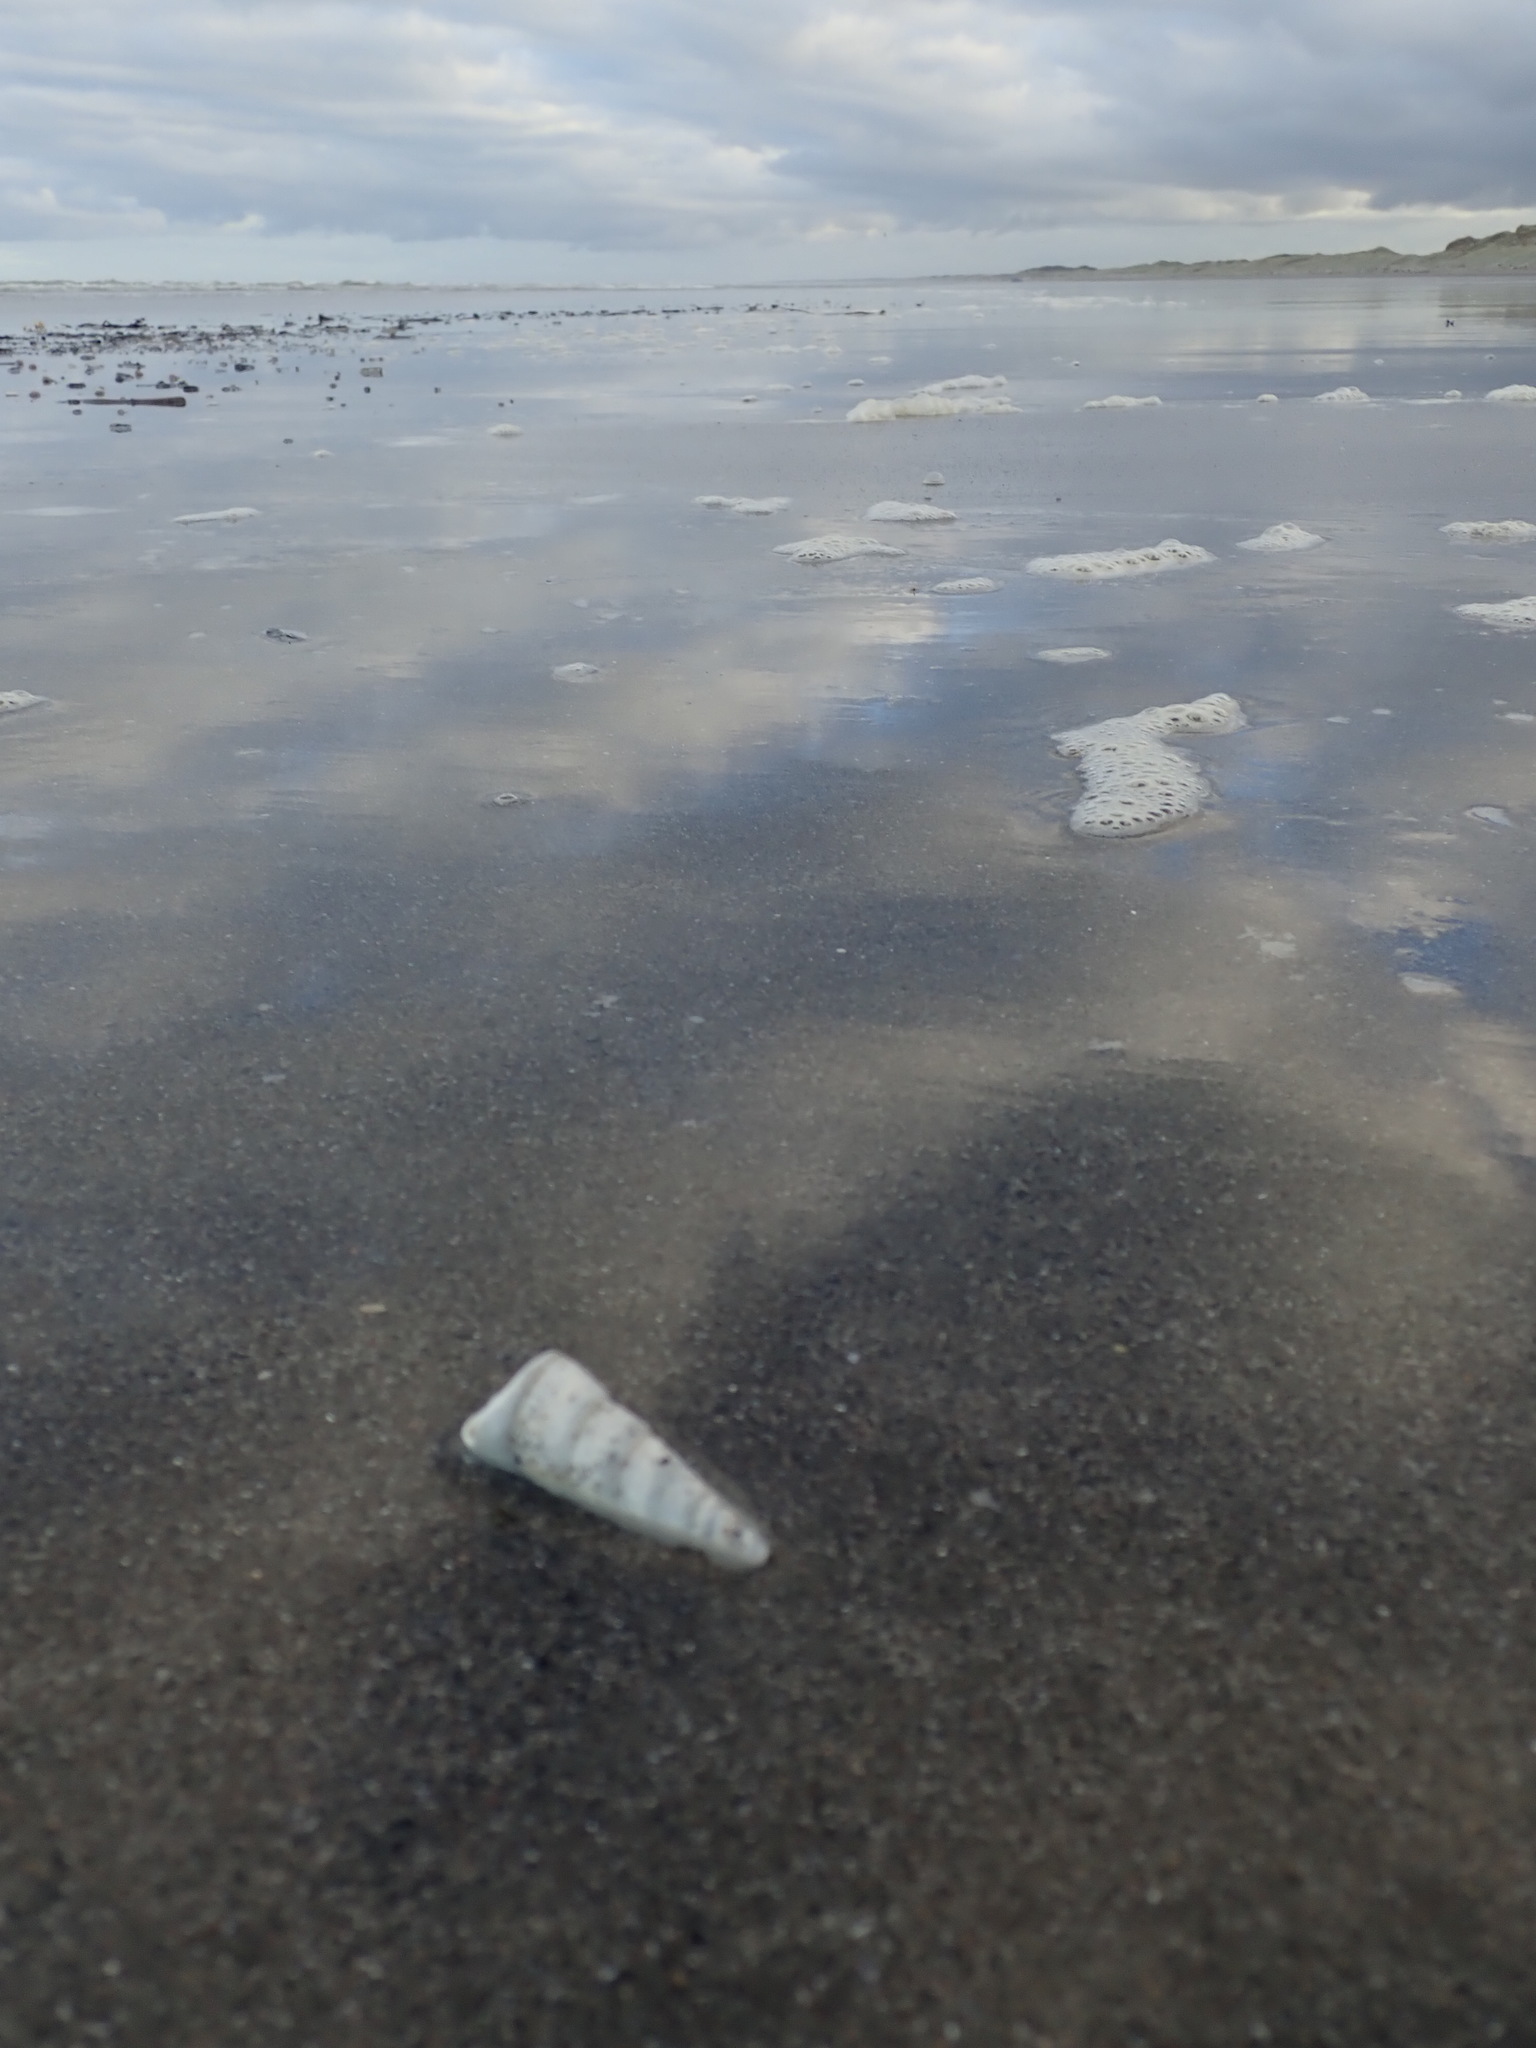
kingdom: Animalia
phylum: Mollusca
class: Gastropoda
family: Turritellidae
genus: Maoricolpus
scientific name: Maoricolpus roseus
